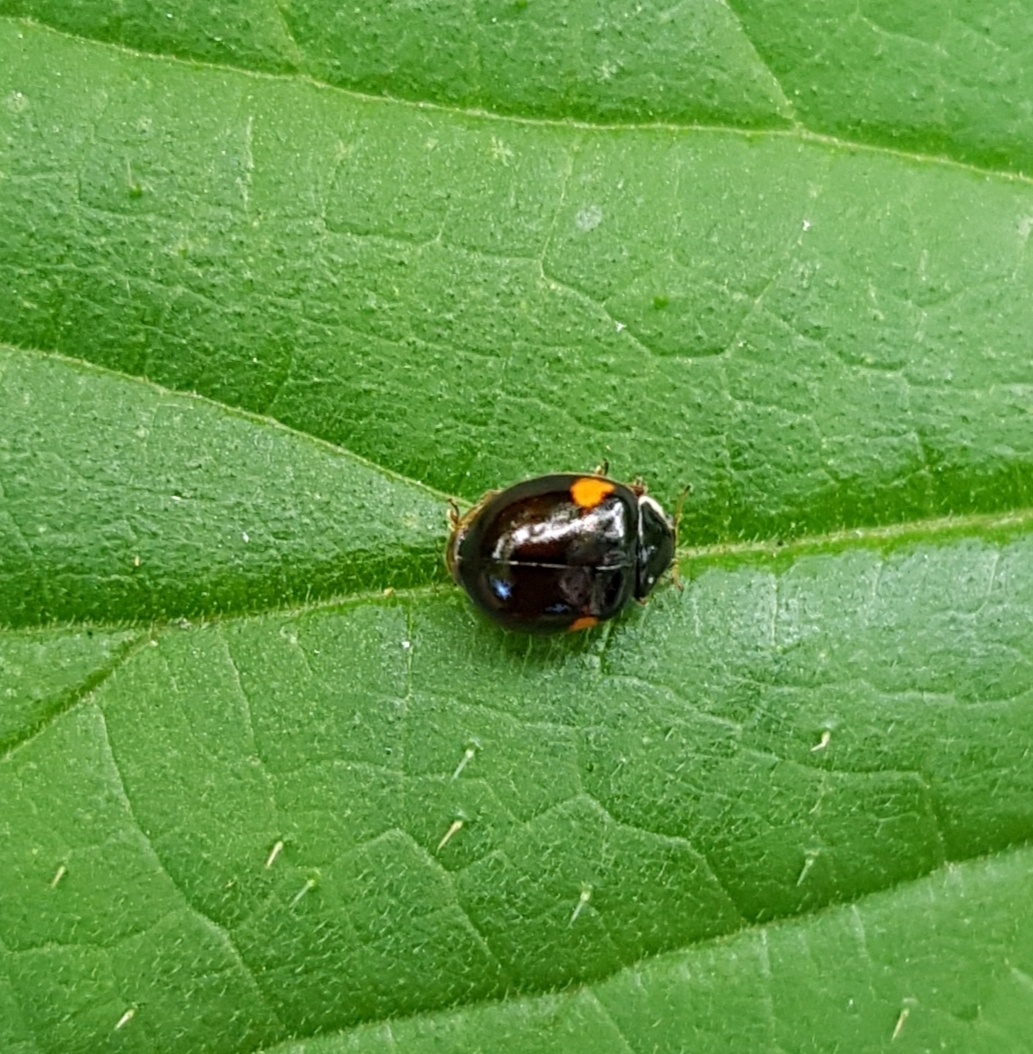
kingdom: Animalia
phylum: Arthropoda
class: Insecta
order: Coleoptera
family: Coccinellidae
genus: Adalia
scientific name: Adalia decempunctata
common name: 10-spot ladybird
